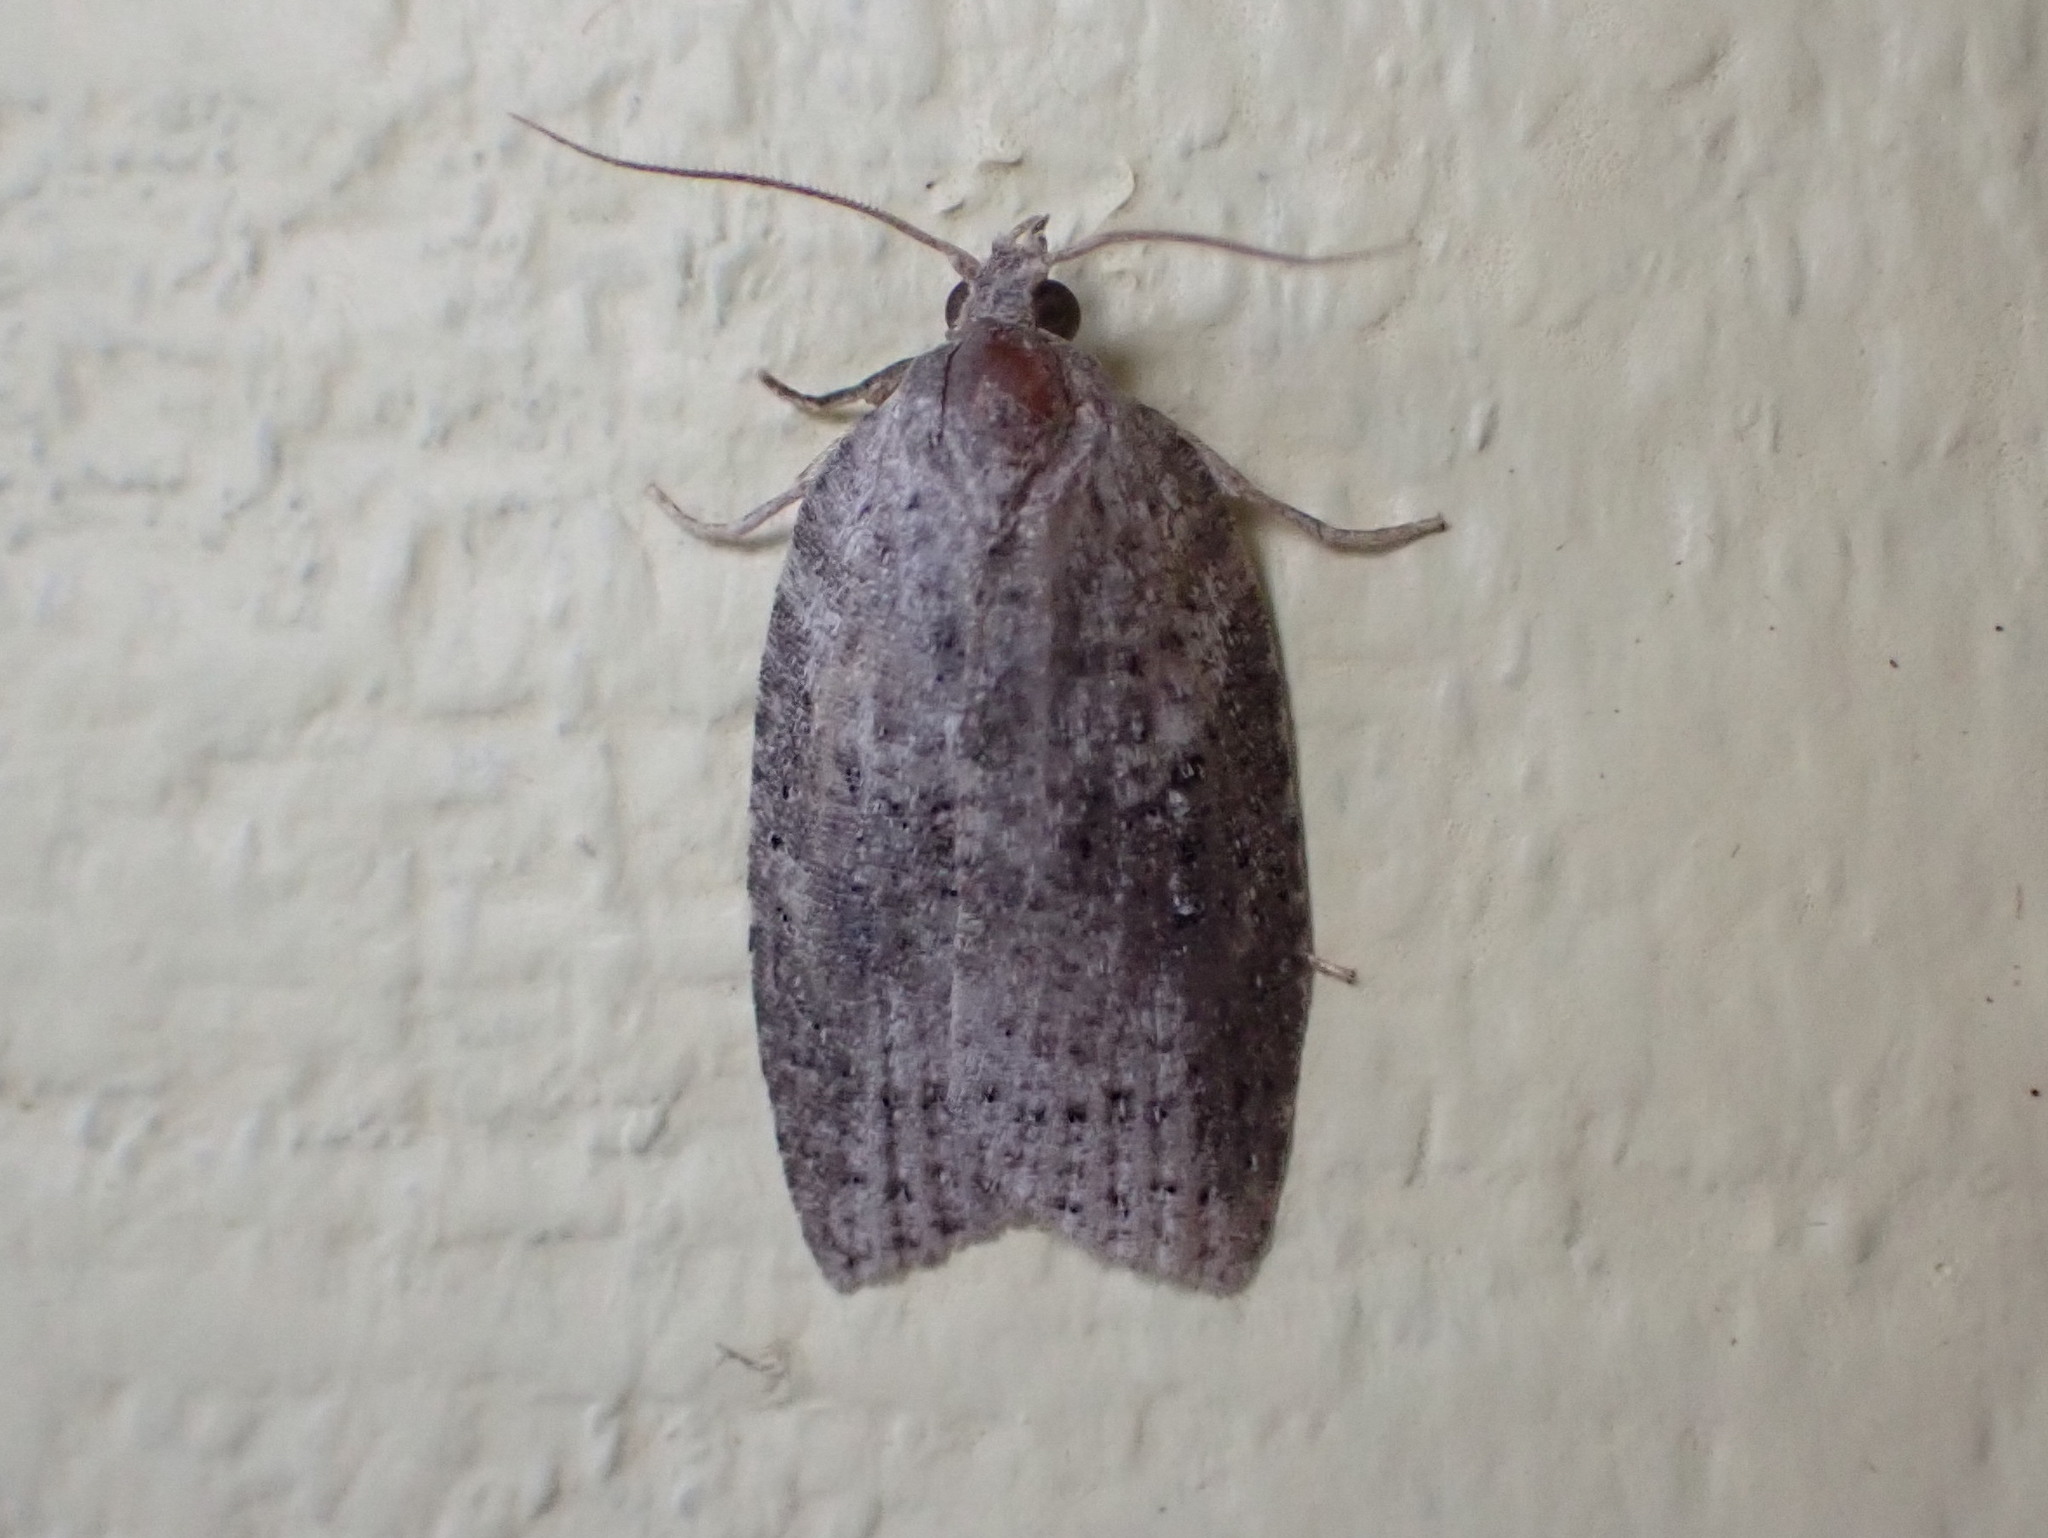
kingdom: Animalia
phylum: Arthropoda
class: Insecta
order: Lepidoptera
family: Tortricidae
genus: Amorbia
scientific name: Amorbia humerosana
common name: White-lined leafroller moth
